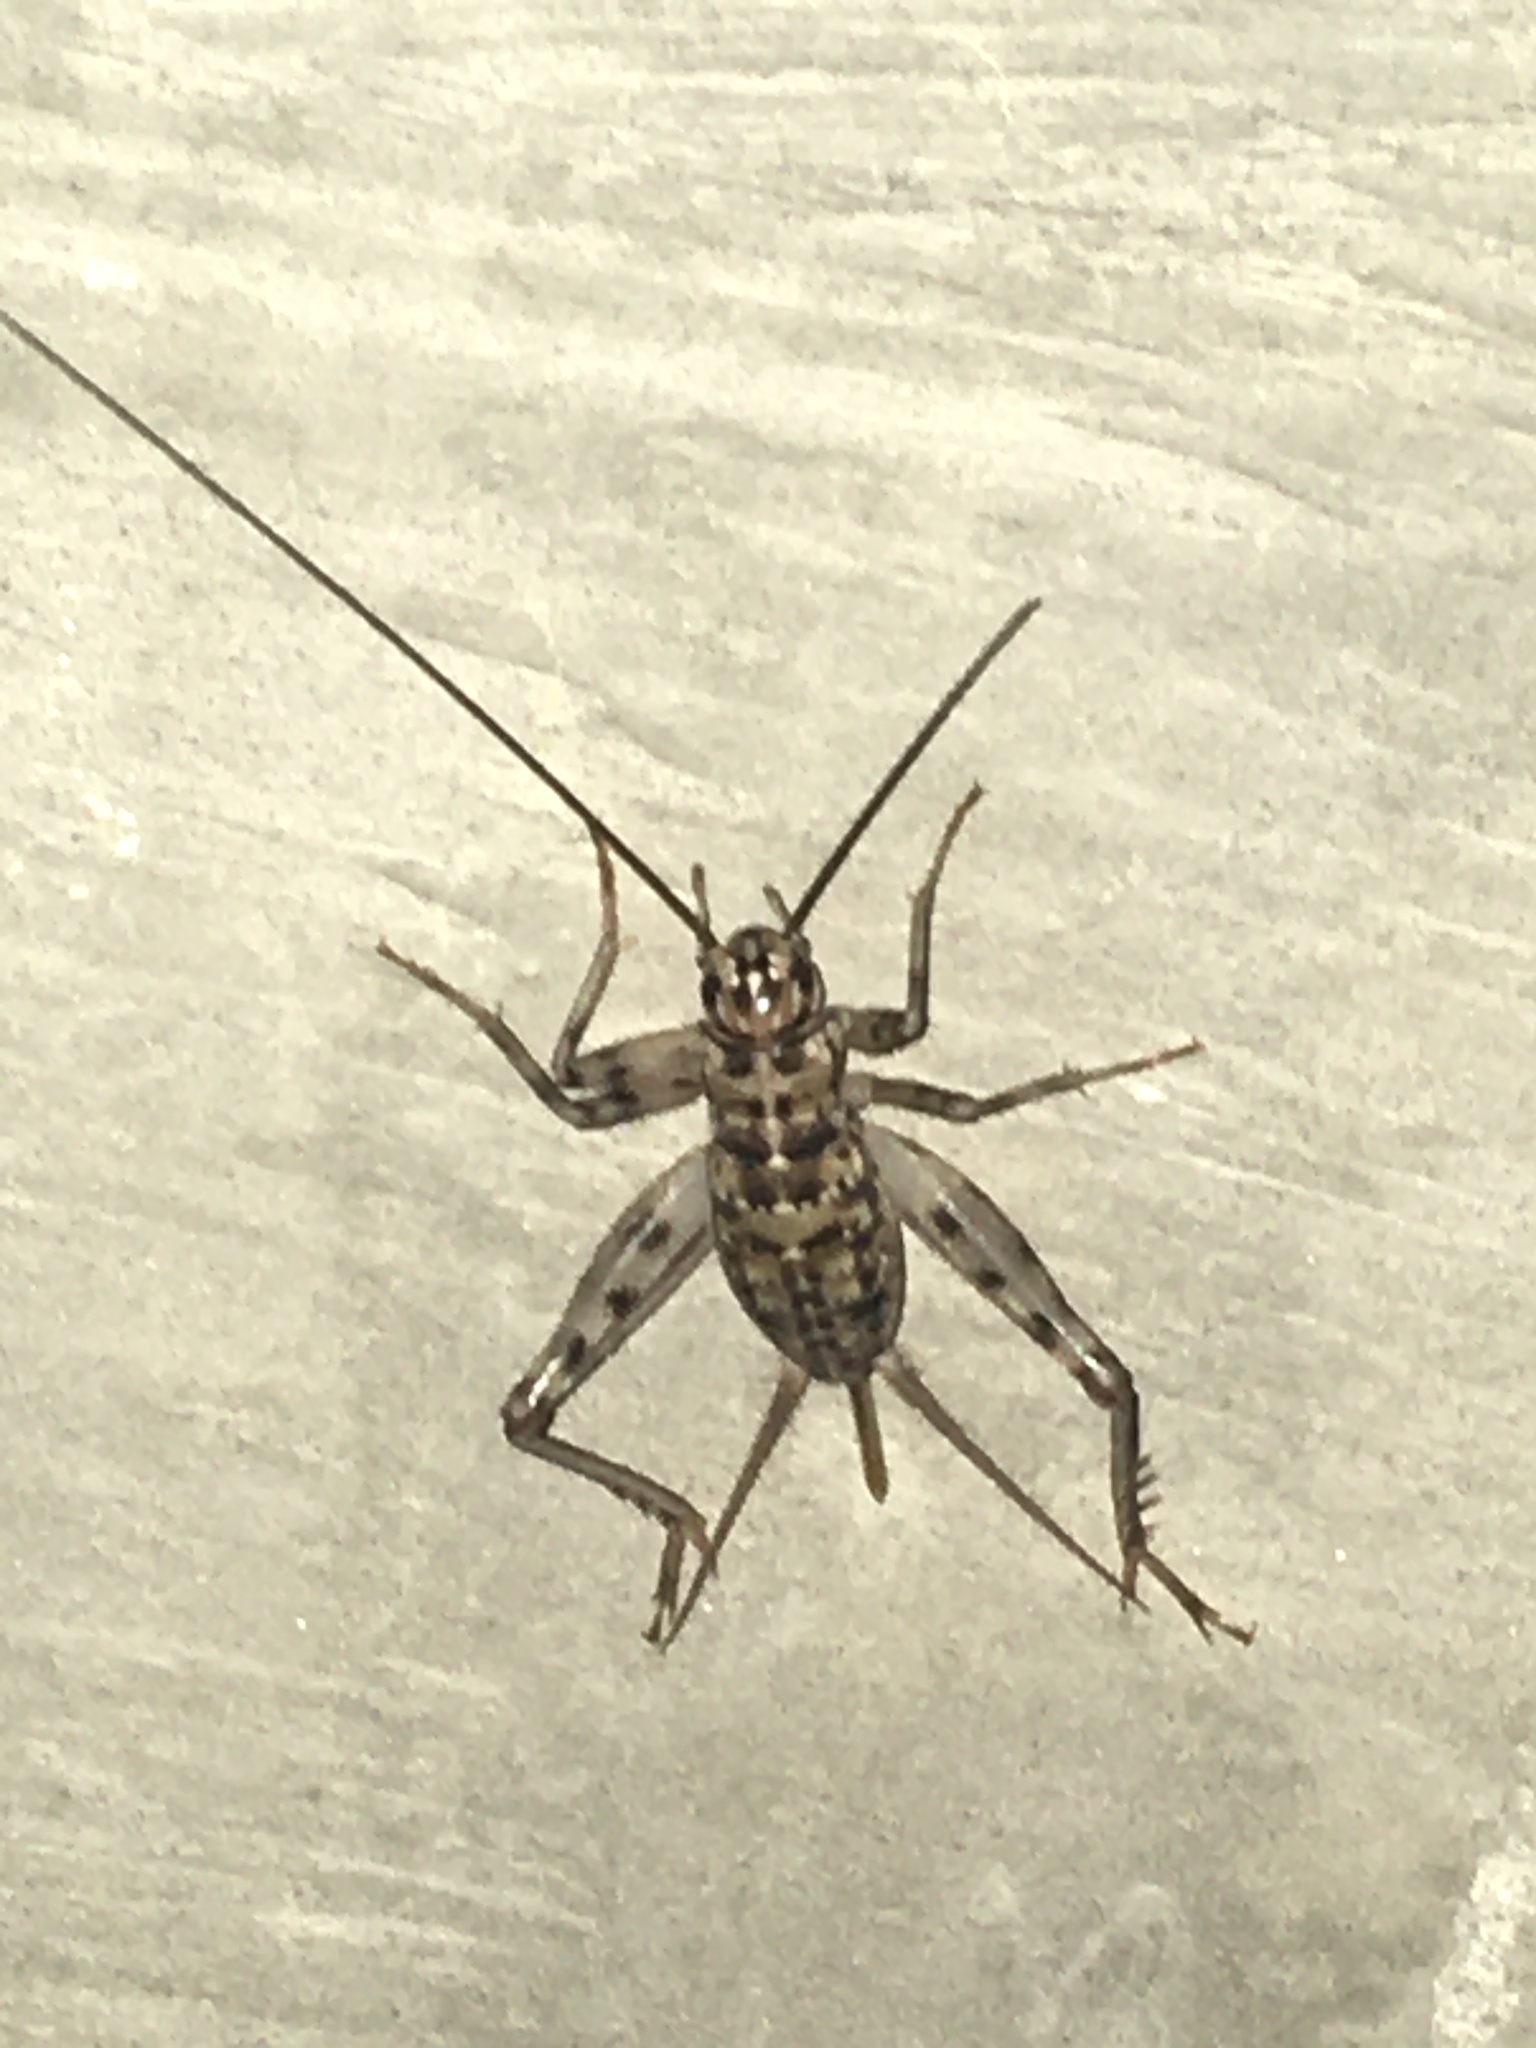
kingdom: Animalia
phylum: Arthropoda
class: Insecta
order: Orthoptera
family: Gryllidae
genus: Gryllomorpha
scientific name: Gryllomorpha dalmatina
